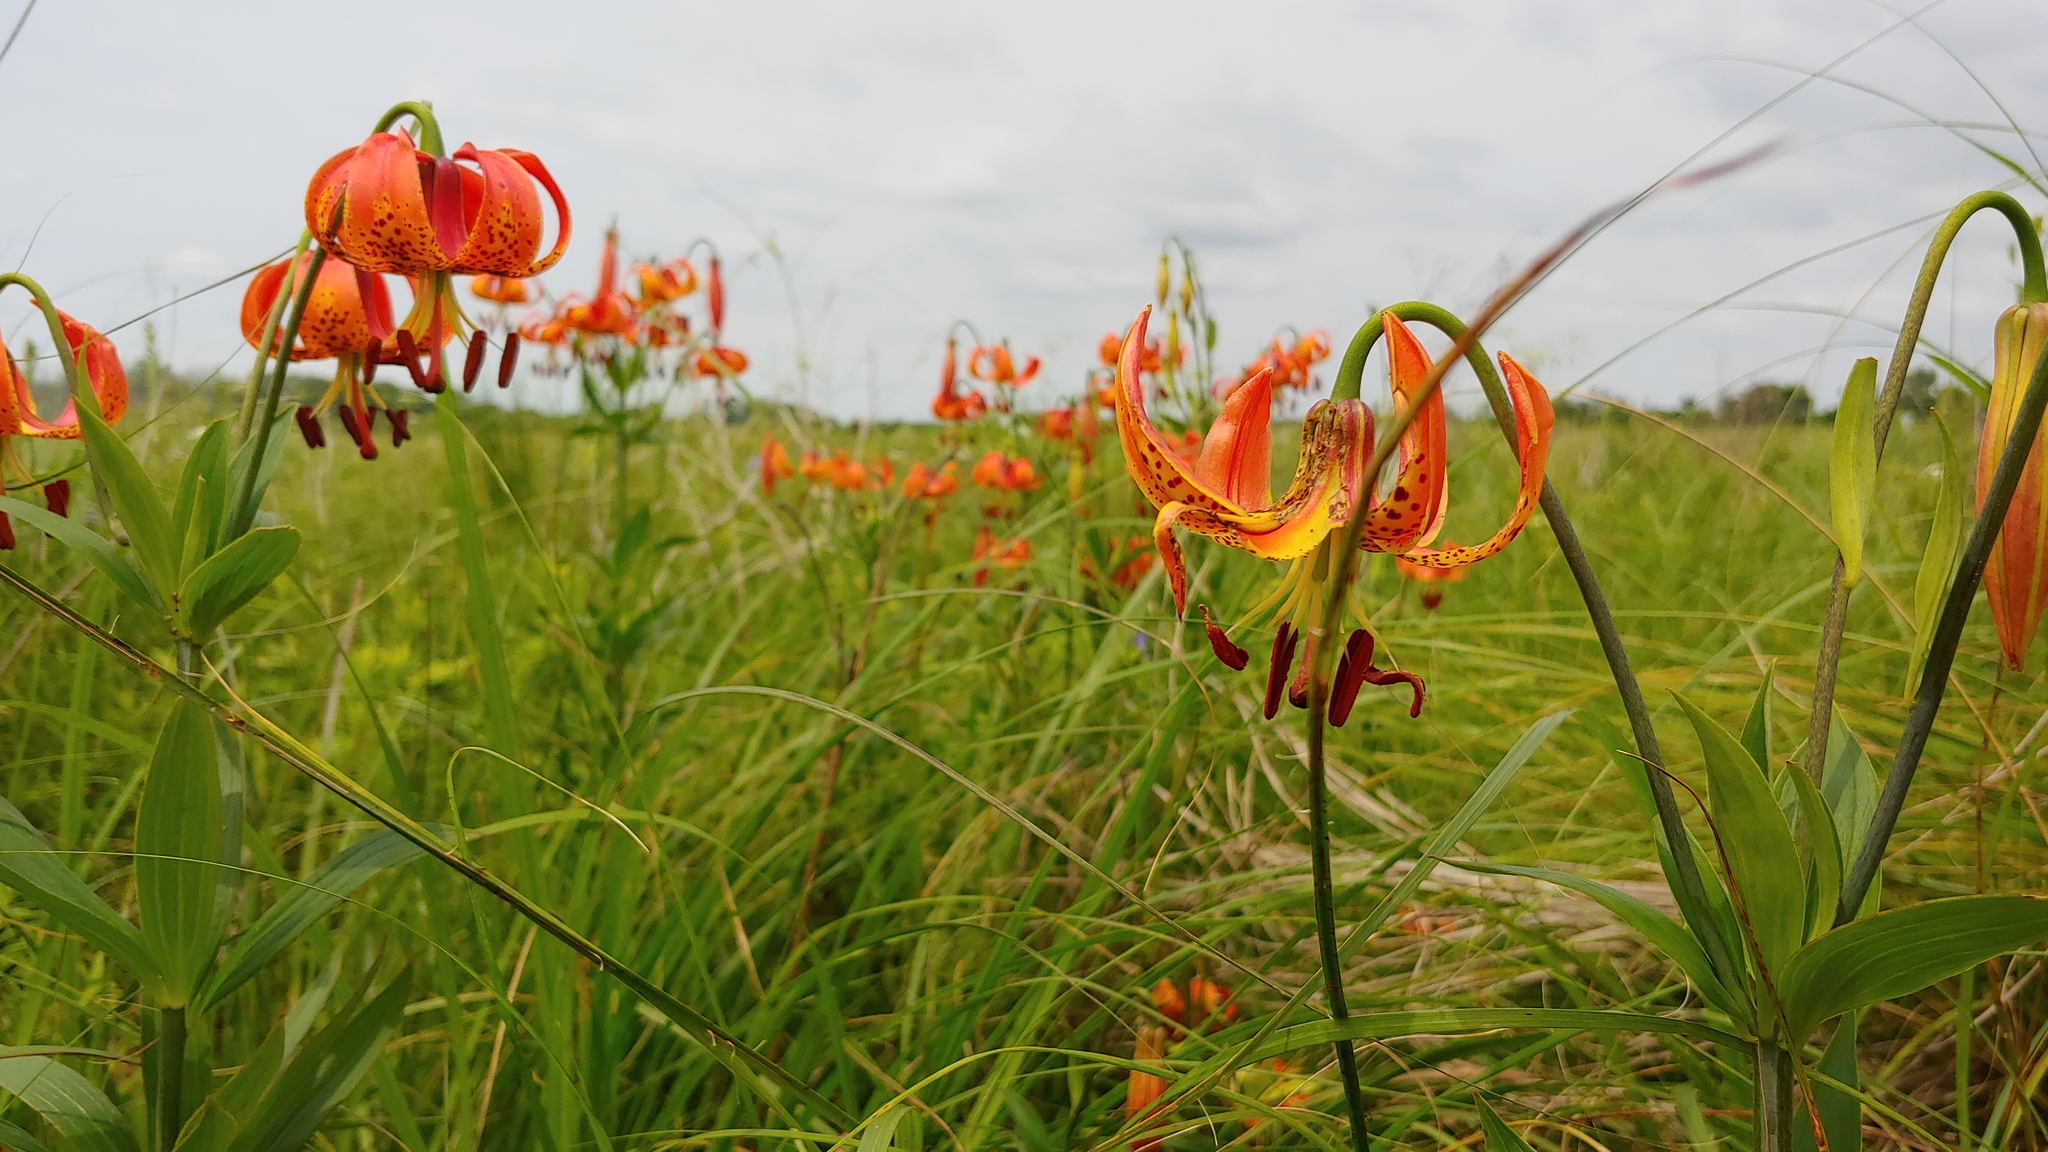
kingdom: Plantae
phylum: Tracheophyta
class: Liliopsida
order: Liliales
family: Liliaceae
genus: Lilium
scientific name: Lilium michiganense
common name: Michigan lily
